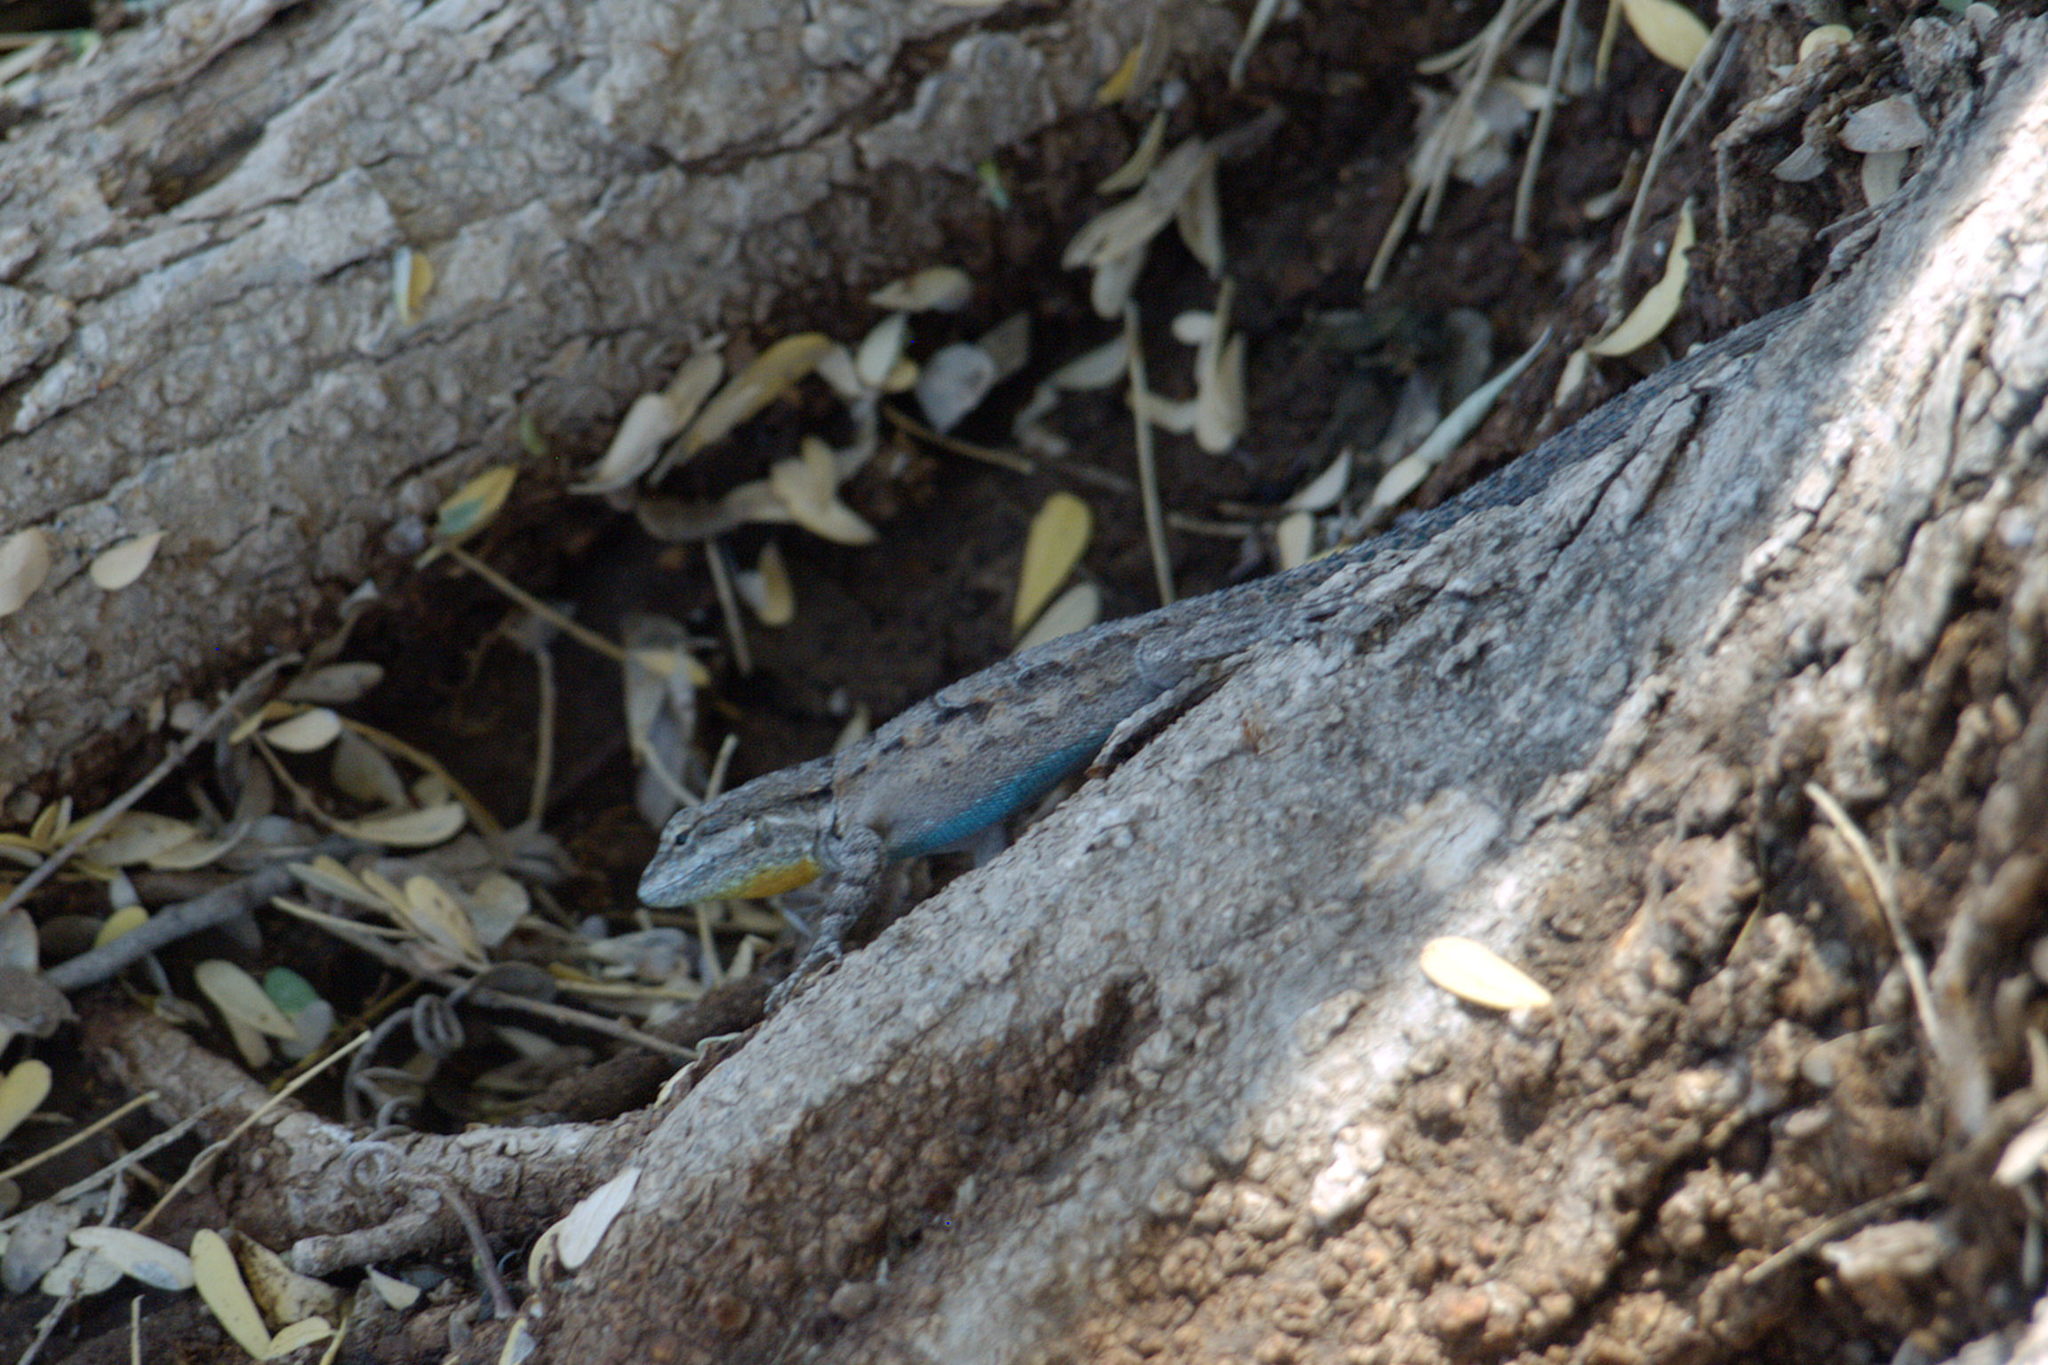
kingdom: Animalia
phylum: Chordata
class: Squamata
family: Phrynosomatidae
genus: Urosaurus
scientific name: Urosaurus ornatus
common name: Ornate tree lizard
